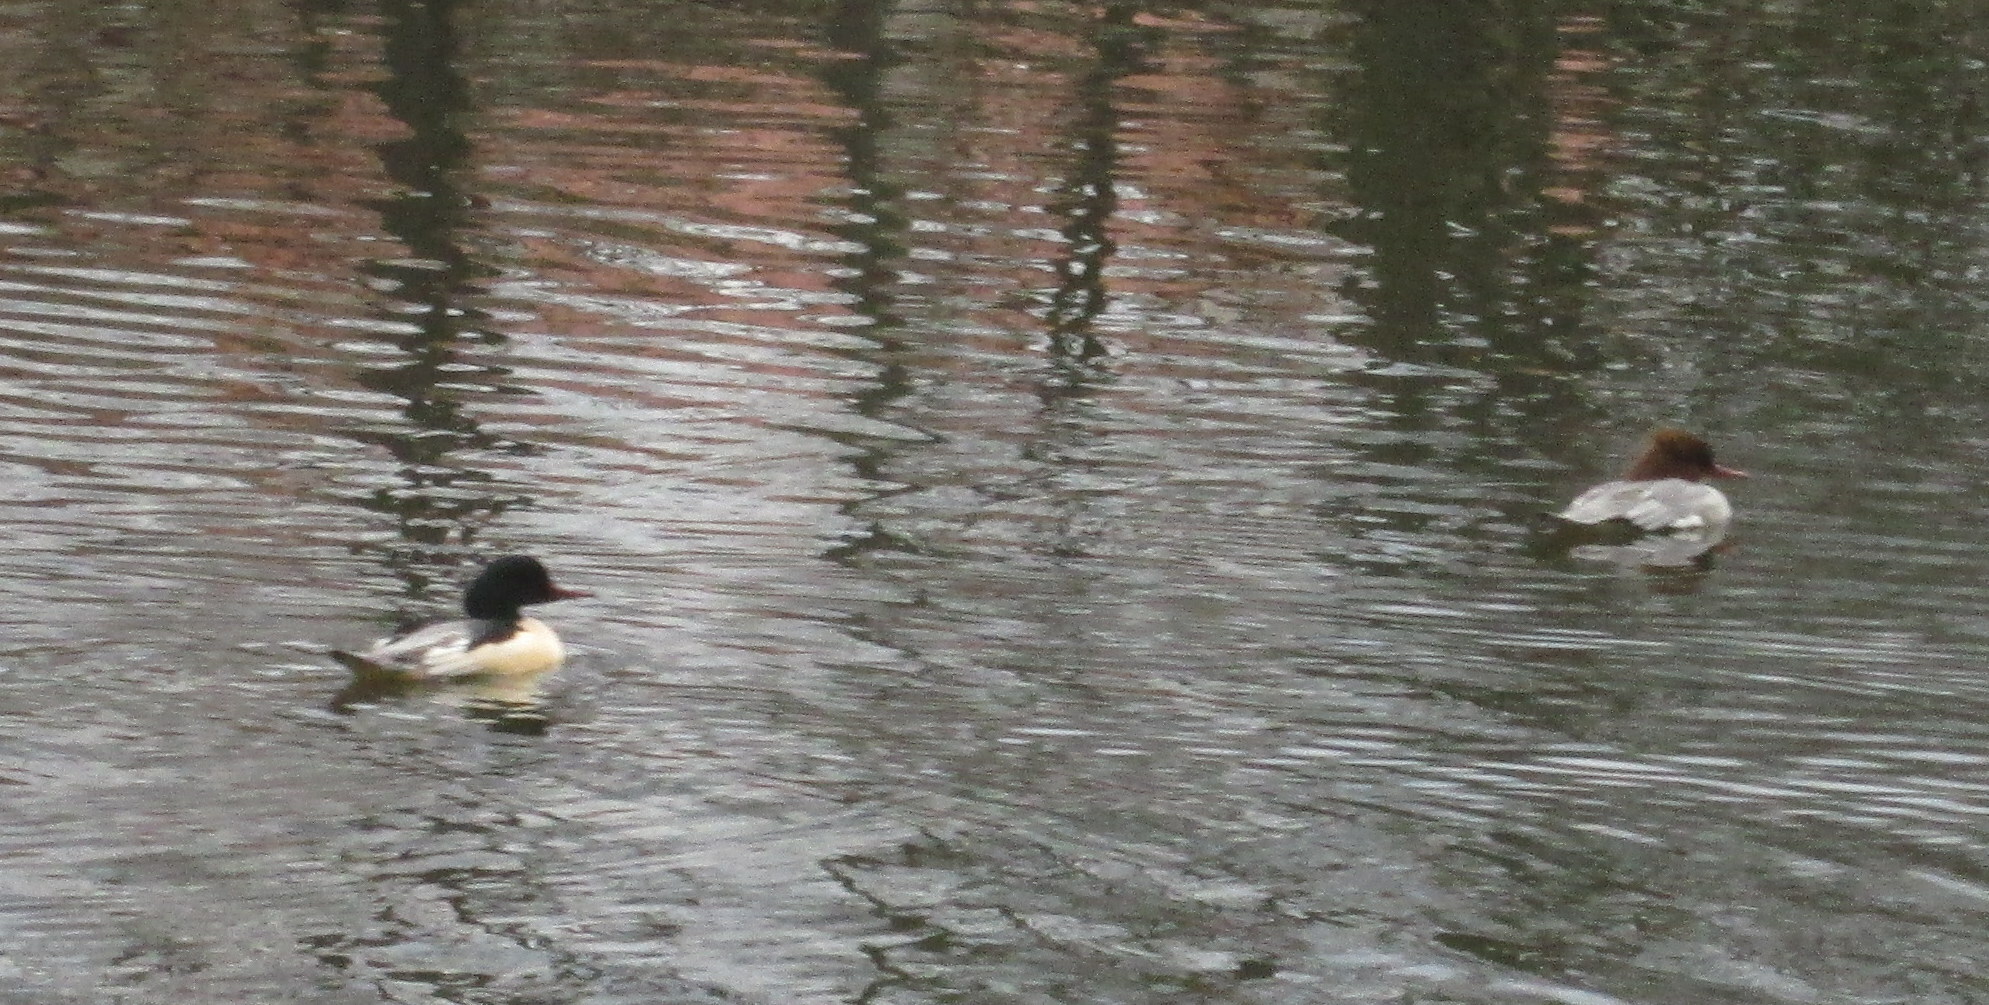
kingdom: Animalia
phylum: Chordata
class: Aves
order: Anseriformes
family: Anatidae
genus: Mergus
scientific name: Mergus merganser
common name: Common merganser
